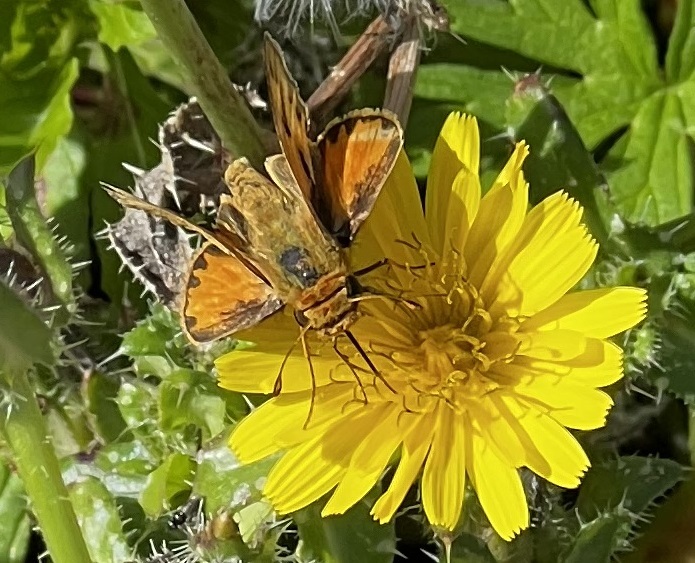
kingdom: Animalia
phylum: Arthropoda
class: Insecta
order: Lepidoptera
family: Hesperiidae
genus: Hylephila
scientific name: Hylephila phyleus
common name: Fiery skipper
